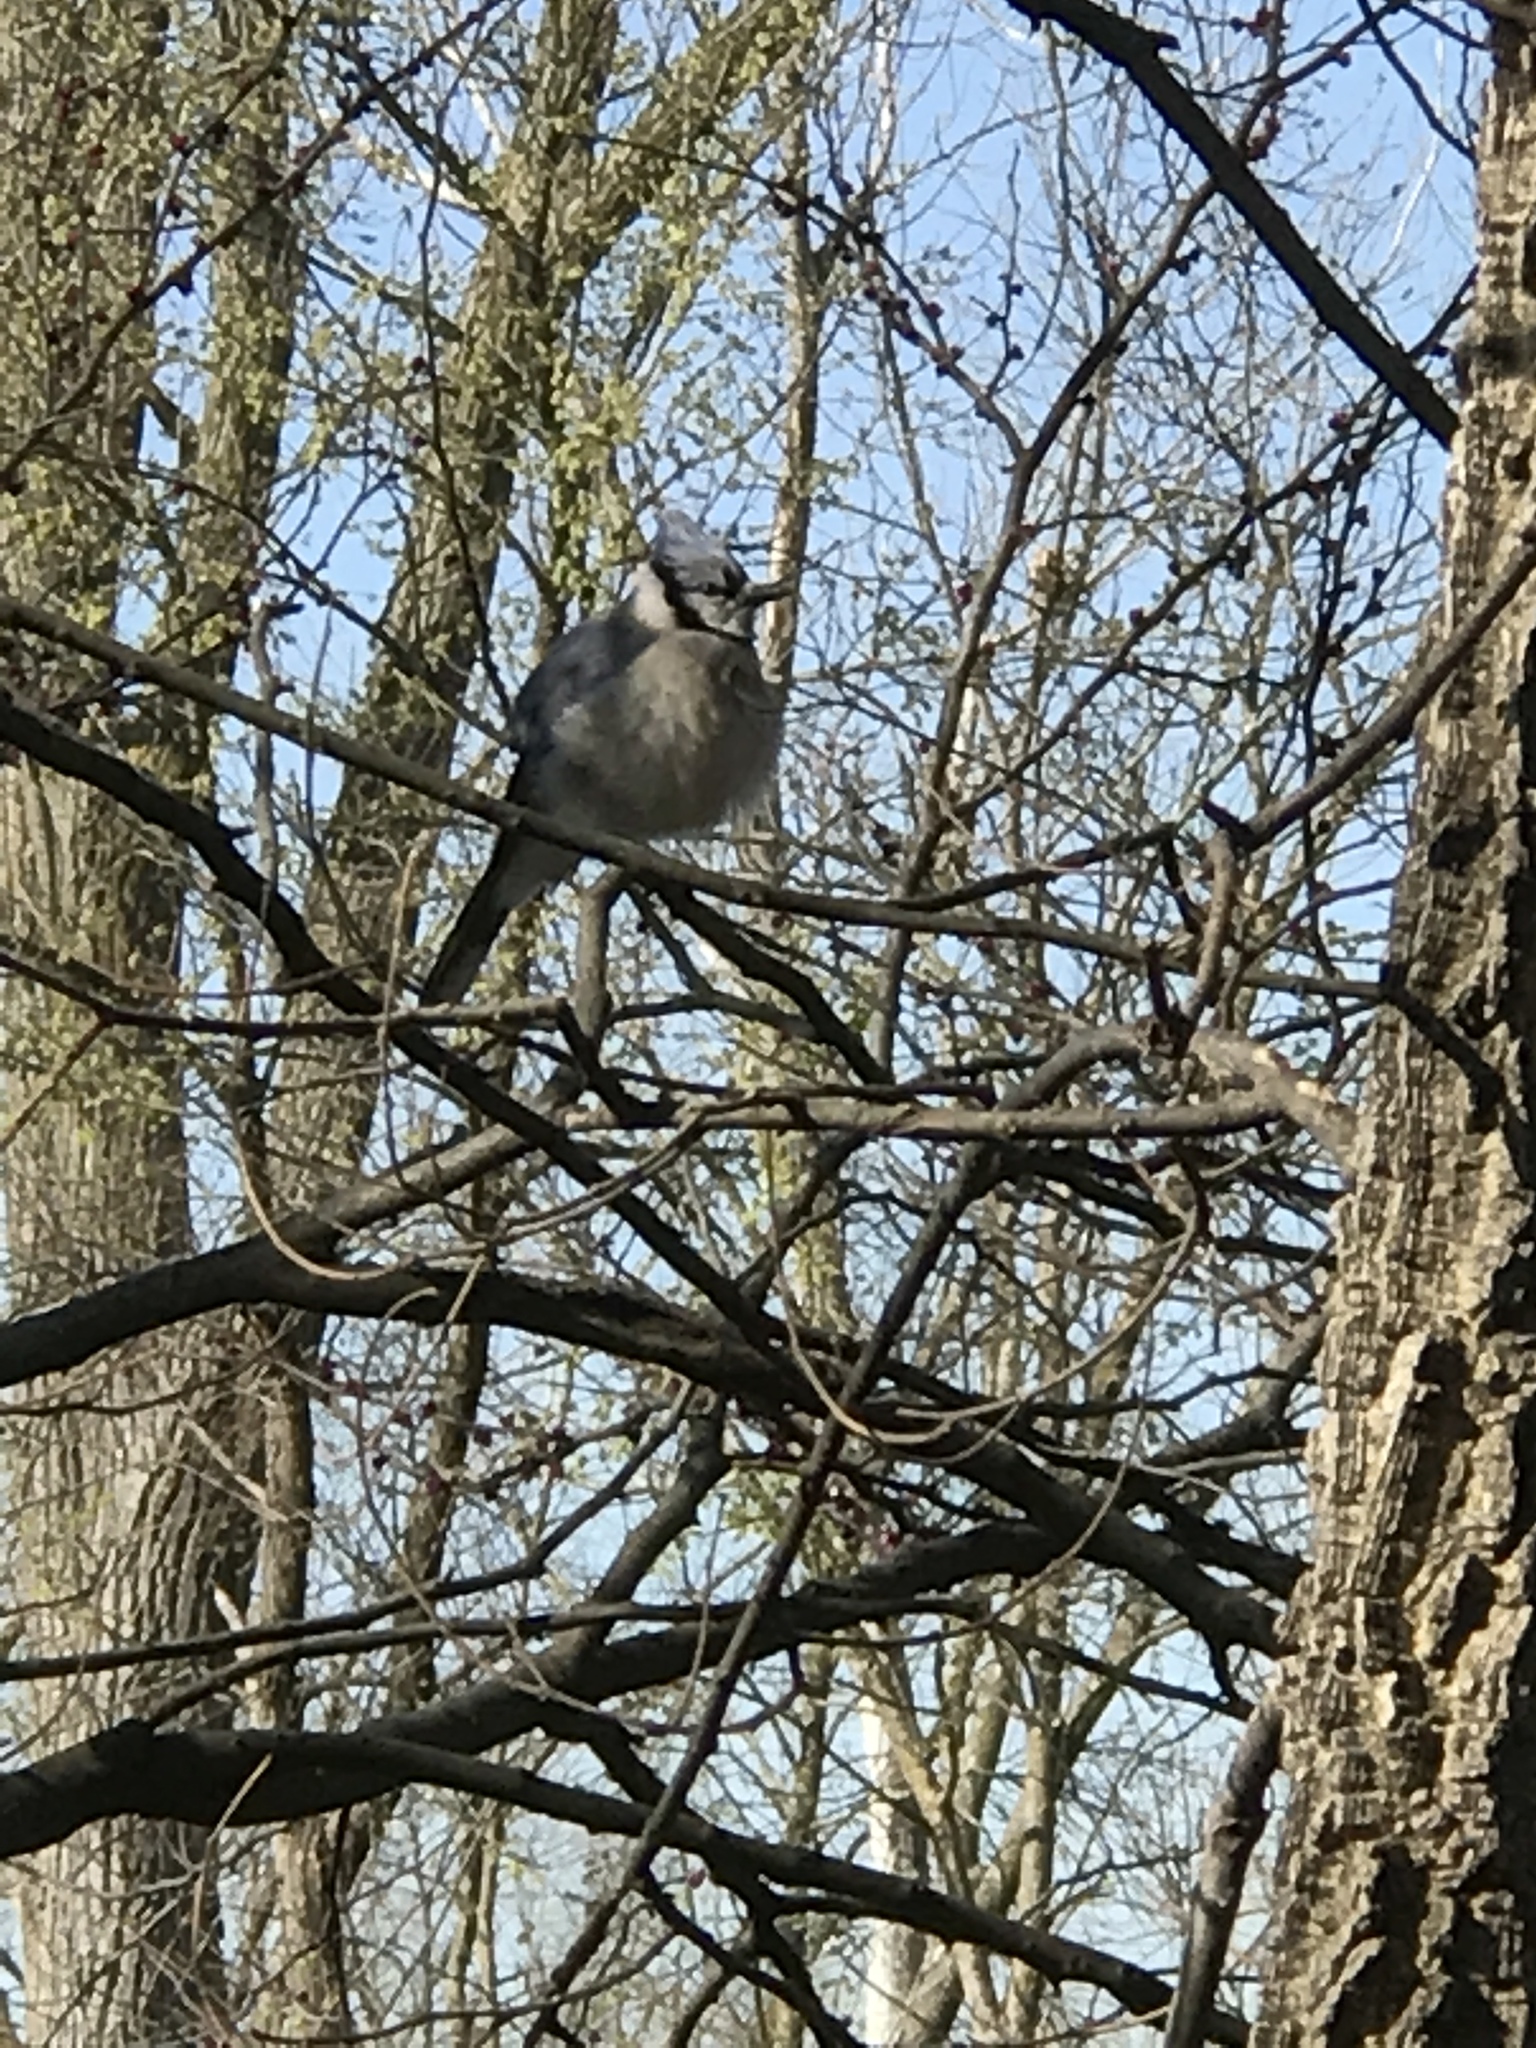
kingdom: Animalia
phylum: Chordata
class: Aves
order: Passeriformes
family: Corvidae
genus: Cyanocitta
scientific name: Cyanocitta cristata
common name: Blue jay
